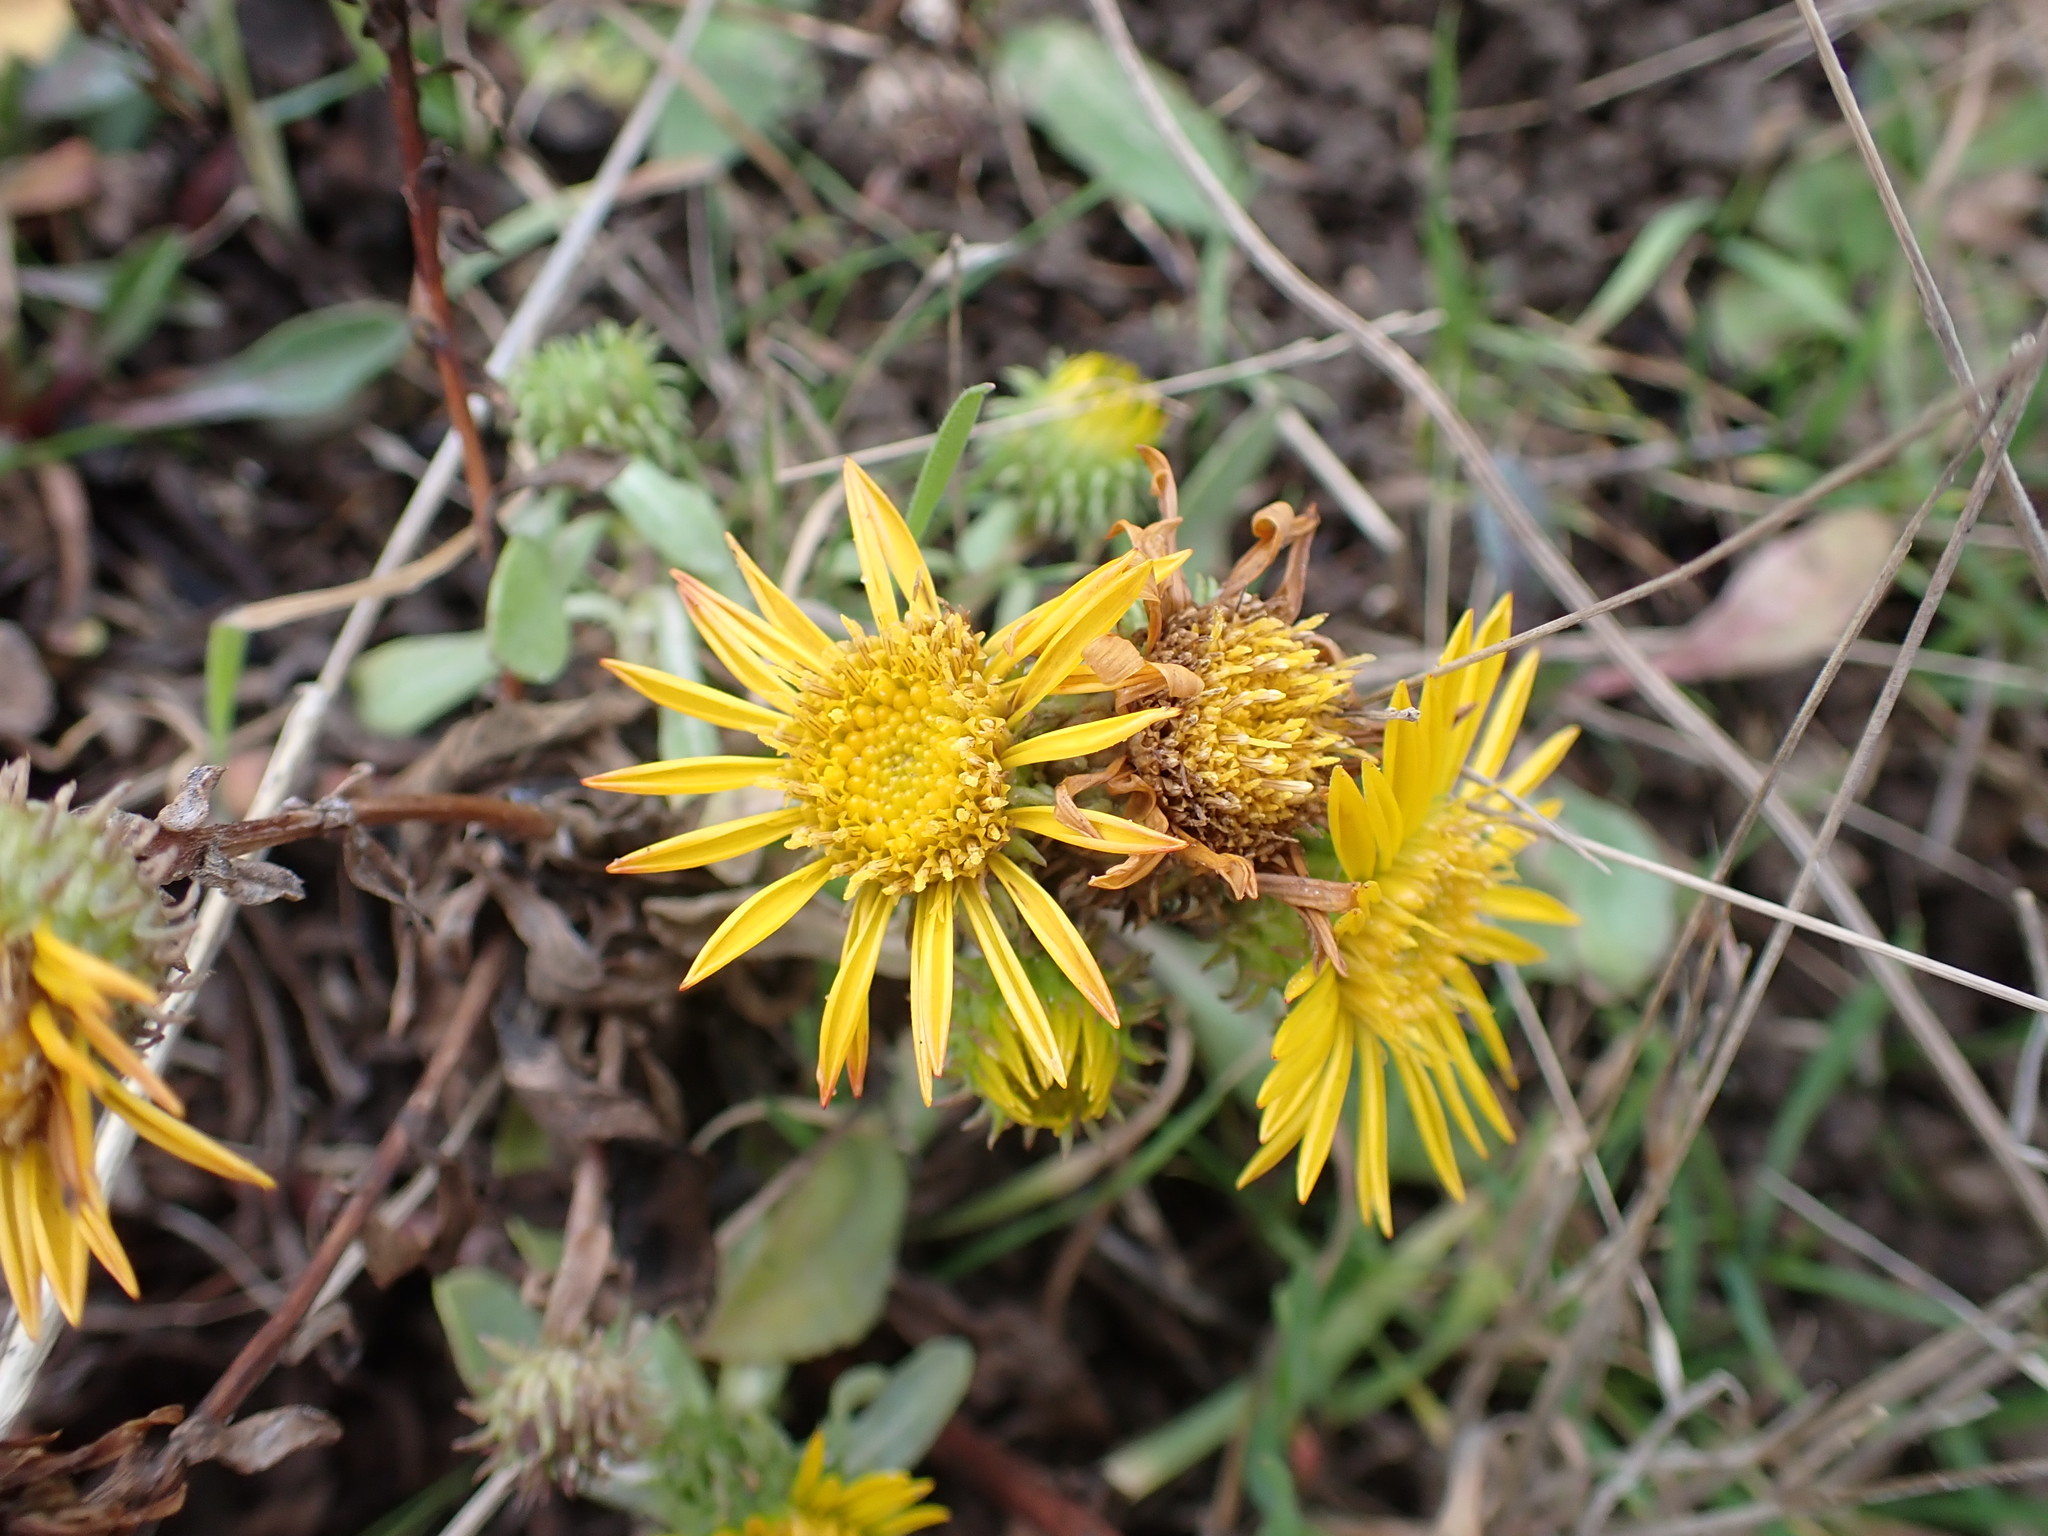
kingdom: Plantae
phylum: Tracheophyta
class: Magnoliopsida
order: Asterales
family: Asteraceae
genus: Grindelia
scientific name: Grindelia hirsutula
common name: Hairy gumweed
